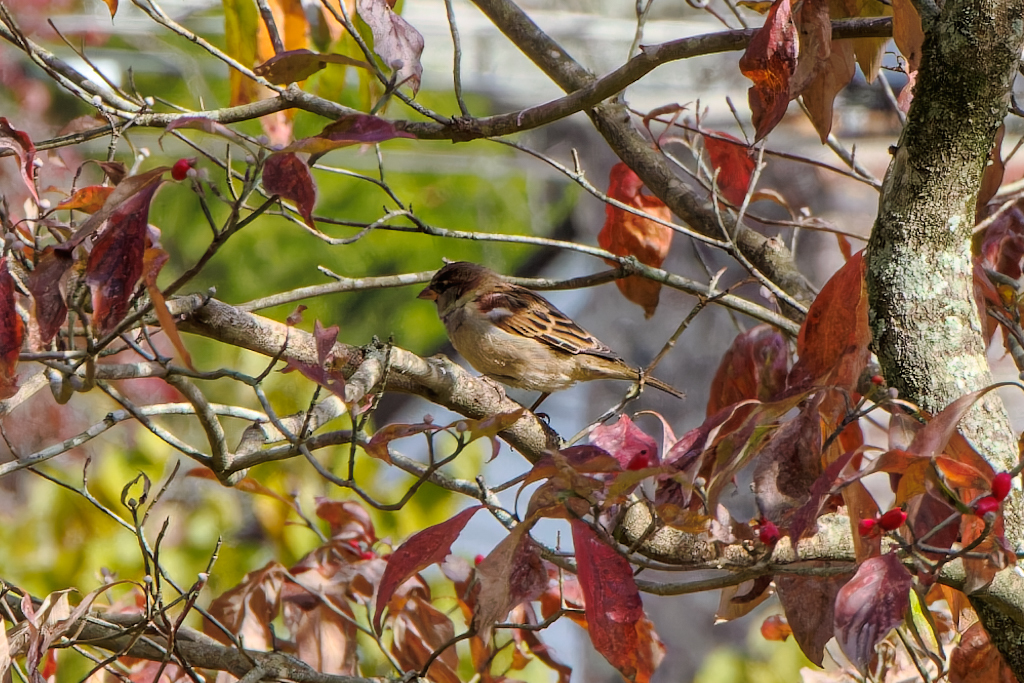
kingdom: Animalia
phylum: Chordata
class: Aves
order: Passeriformes
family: Passeridae
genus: Passer
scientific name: Passer domesticus
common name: House sparrow
